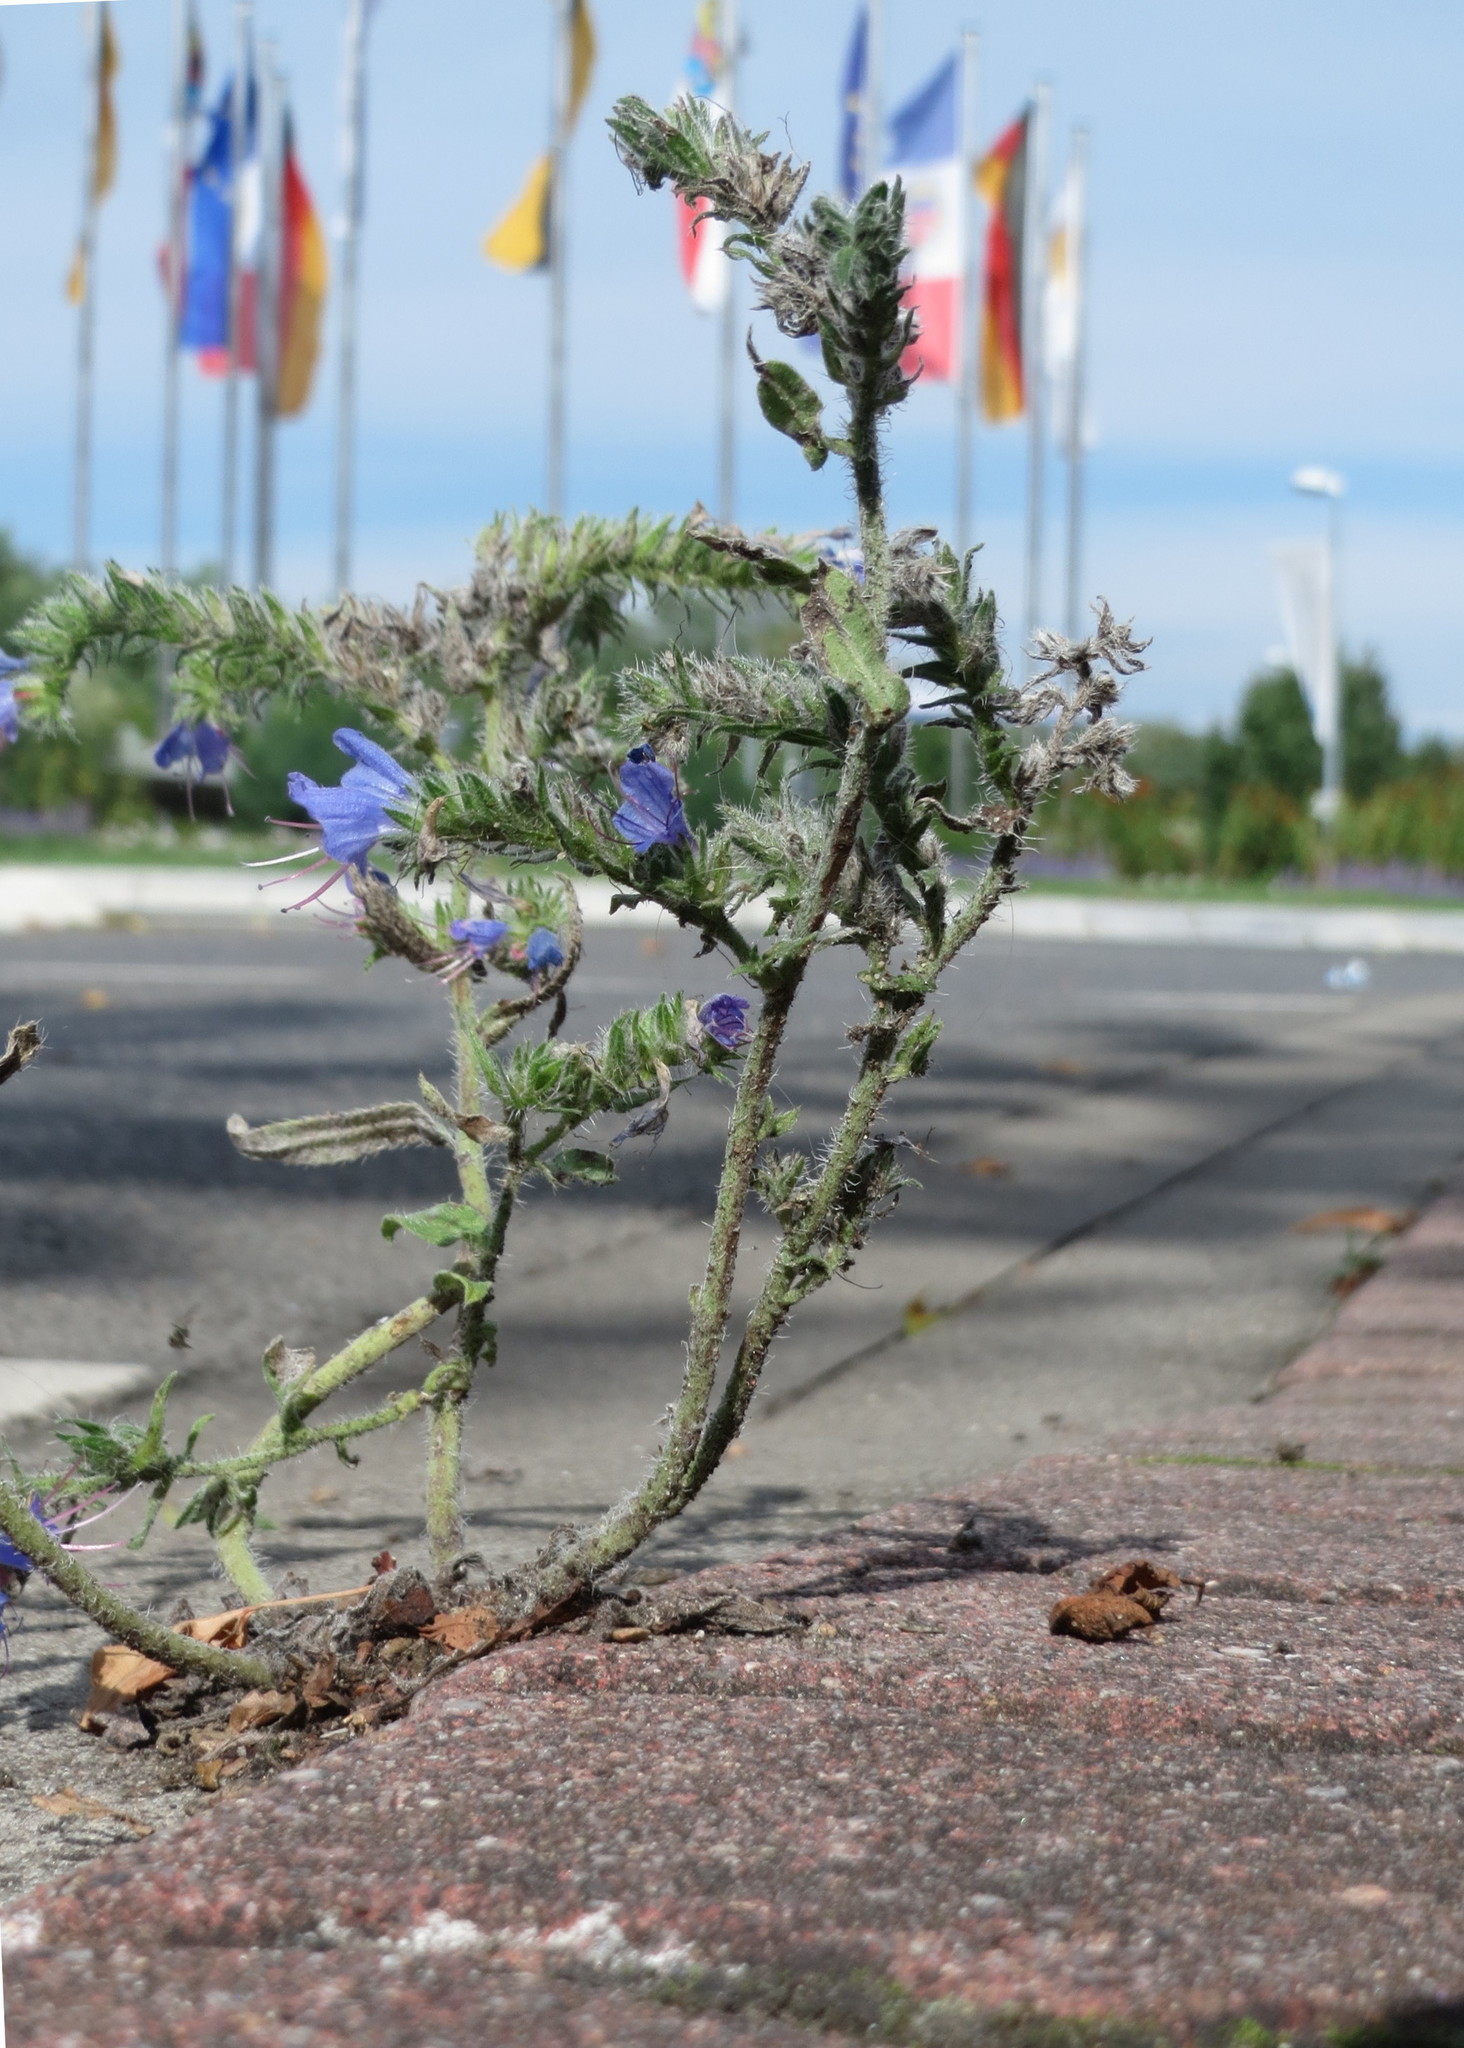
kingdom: Plantae
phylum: Tracheophyta
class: Magnoliopsida
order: Boraginales
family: Boraginaceae
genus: Echium
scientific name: Echium vulgare
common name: Common viper's bugloss
